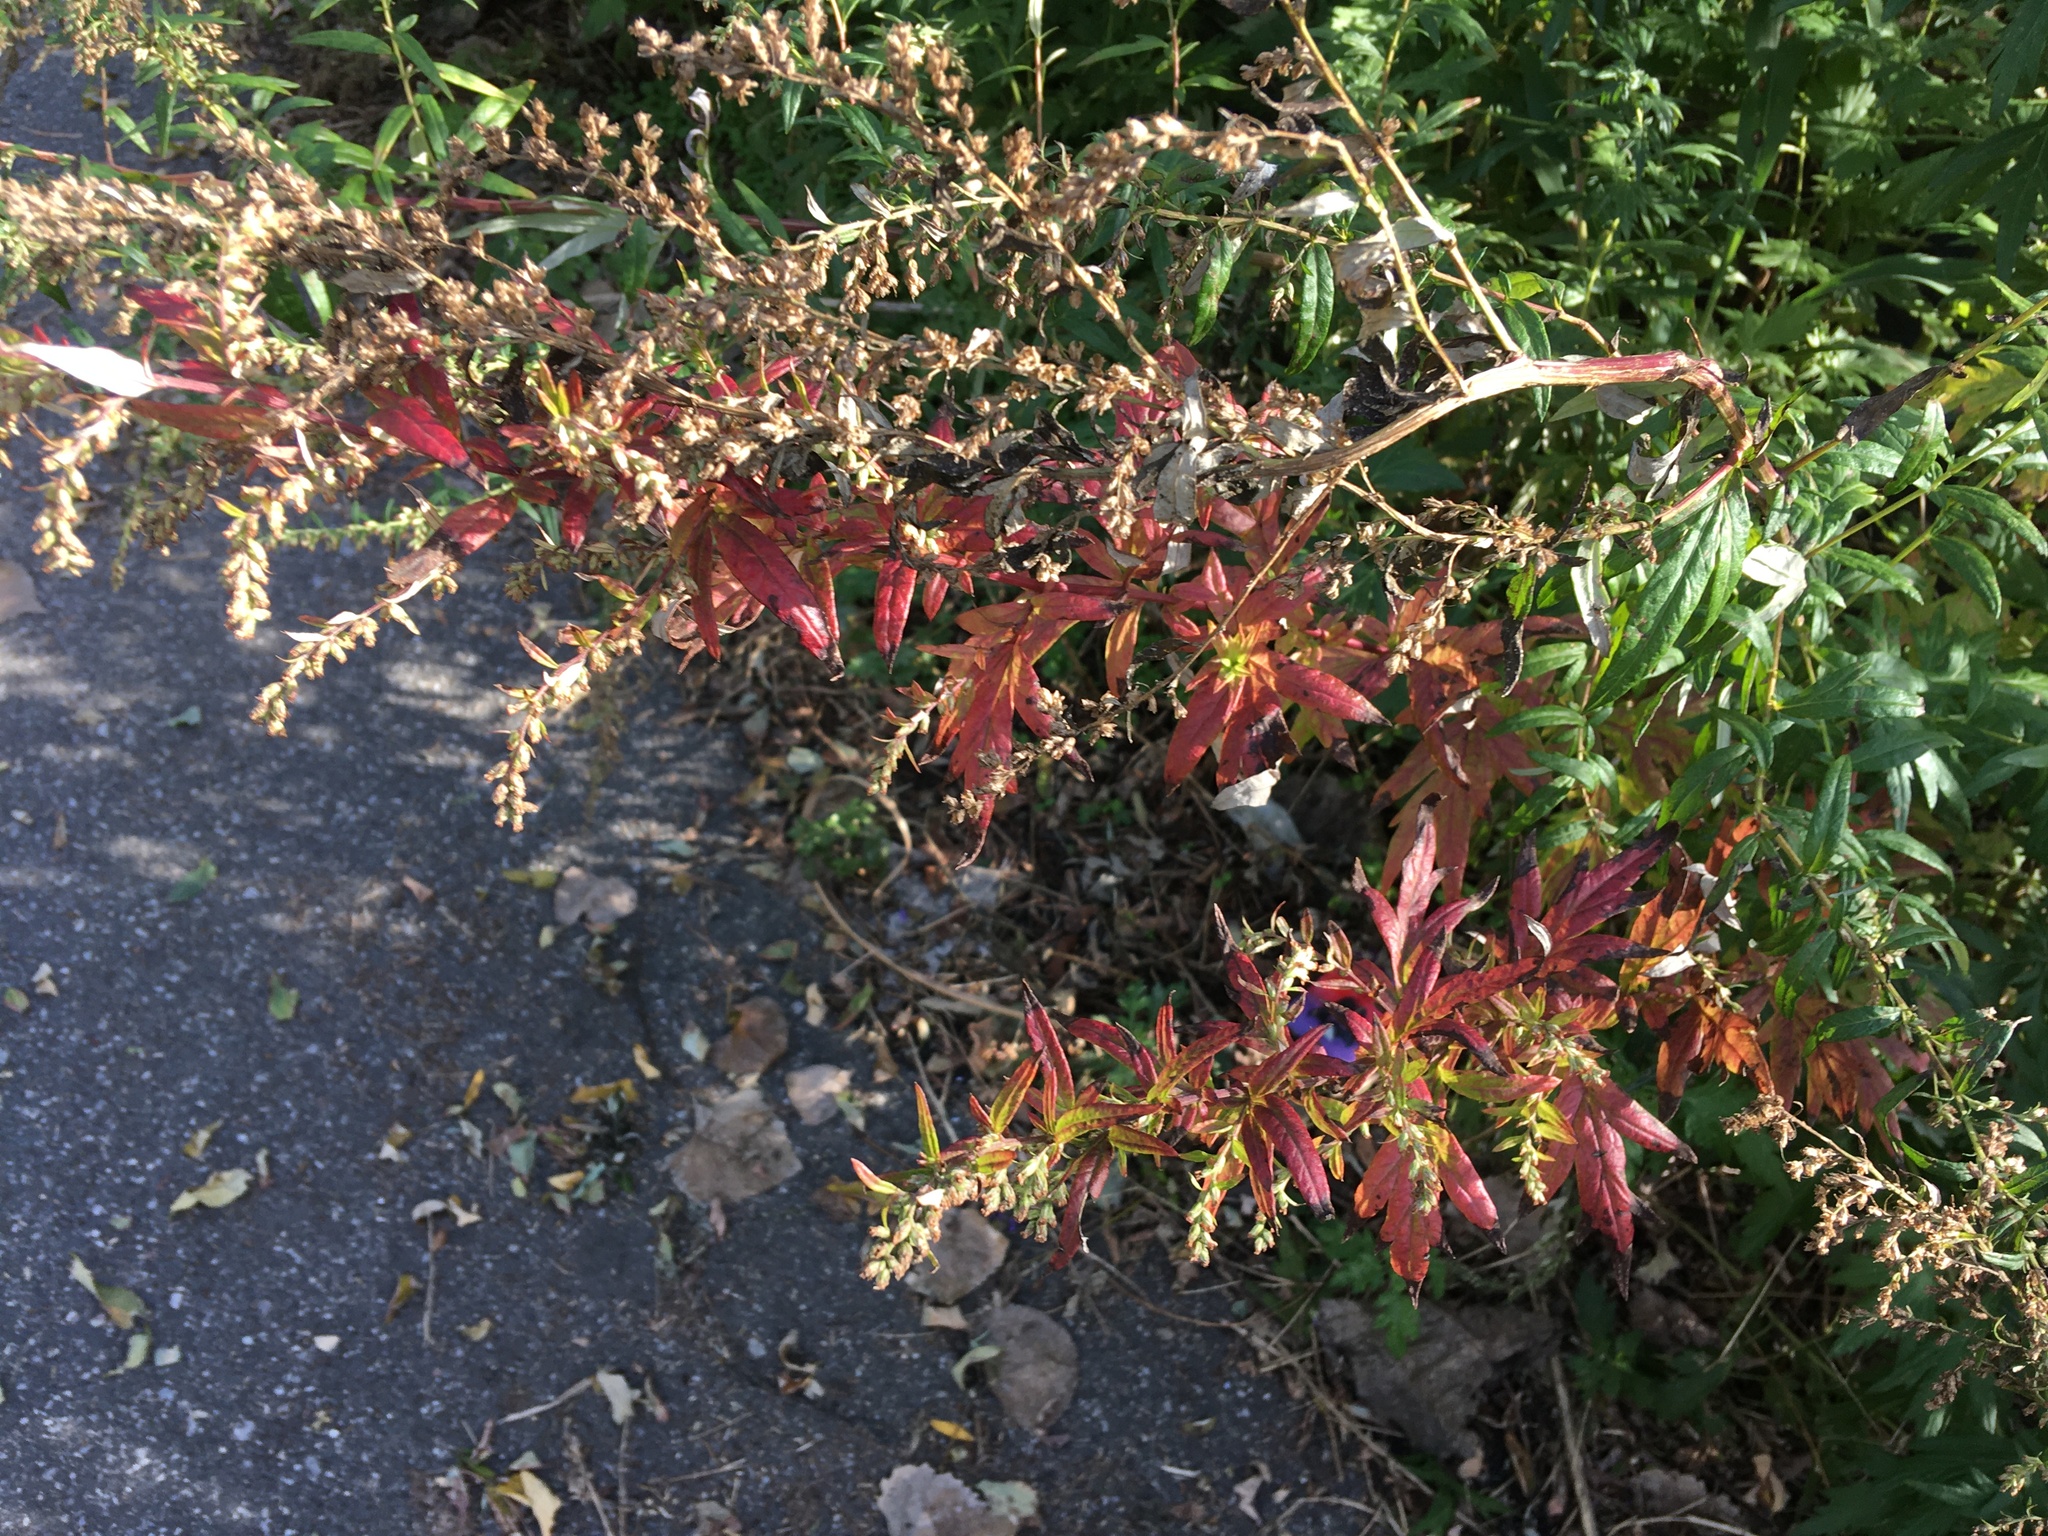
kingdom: Plantae
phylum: Tracheophyta
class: Magnoliopsida
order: Asterales
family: Asteraceae
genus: Artemisia
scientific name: Artemisia vulgaris
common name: Mugwort
